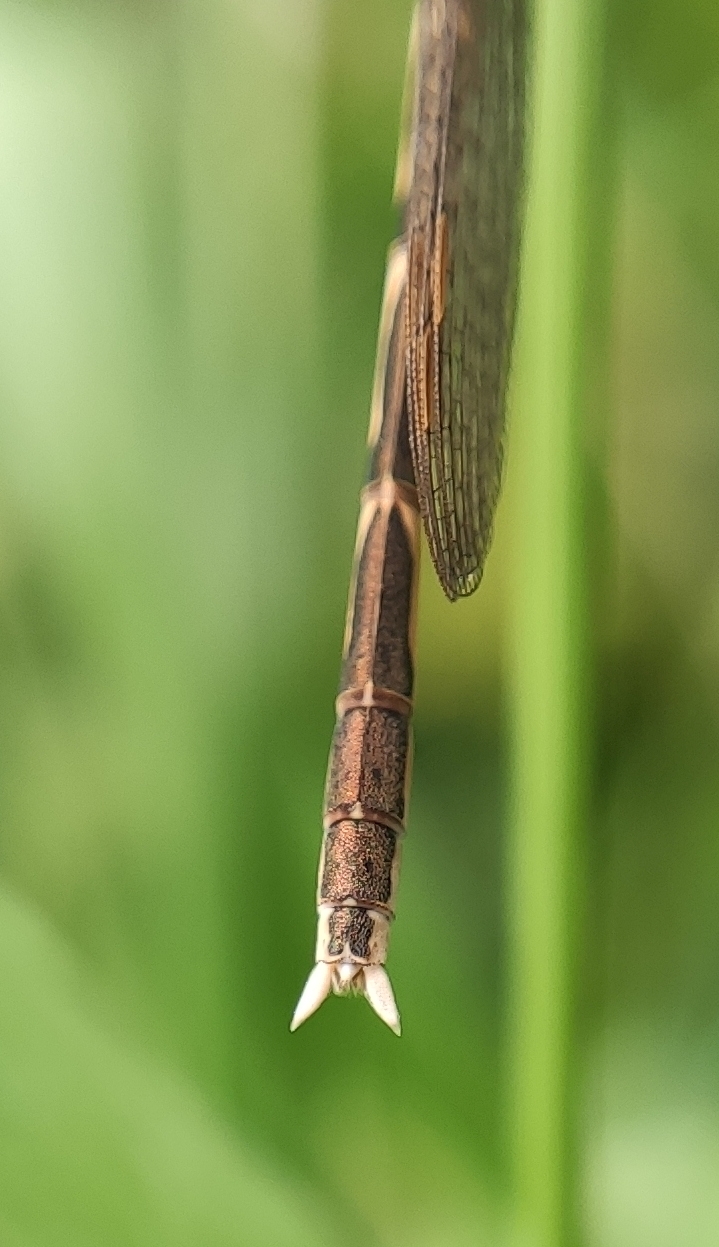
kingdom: Animalia
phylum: Arthropoda
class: Insecta
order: Odonata
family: Lestidae
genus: Sympecma
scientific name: Sympecma fusca
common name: Common winter damsel
